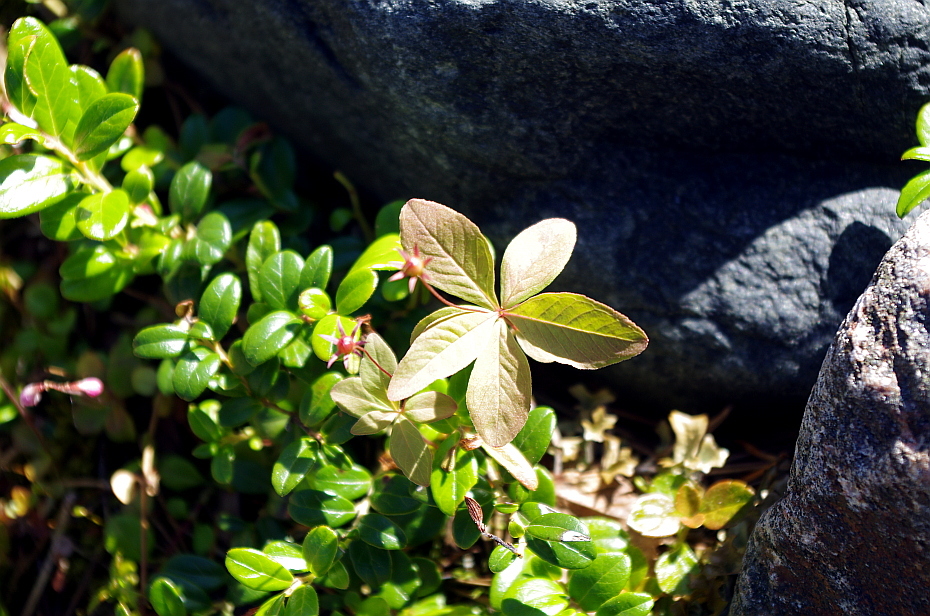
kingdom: Plantae
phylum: Tracheophyta
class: Magnoliopsida
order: Ericales
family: Primulaceae
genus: Lysimachia
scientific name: Lysimachia europaea
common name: Arctic starflower
